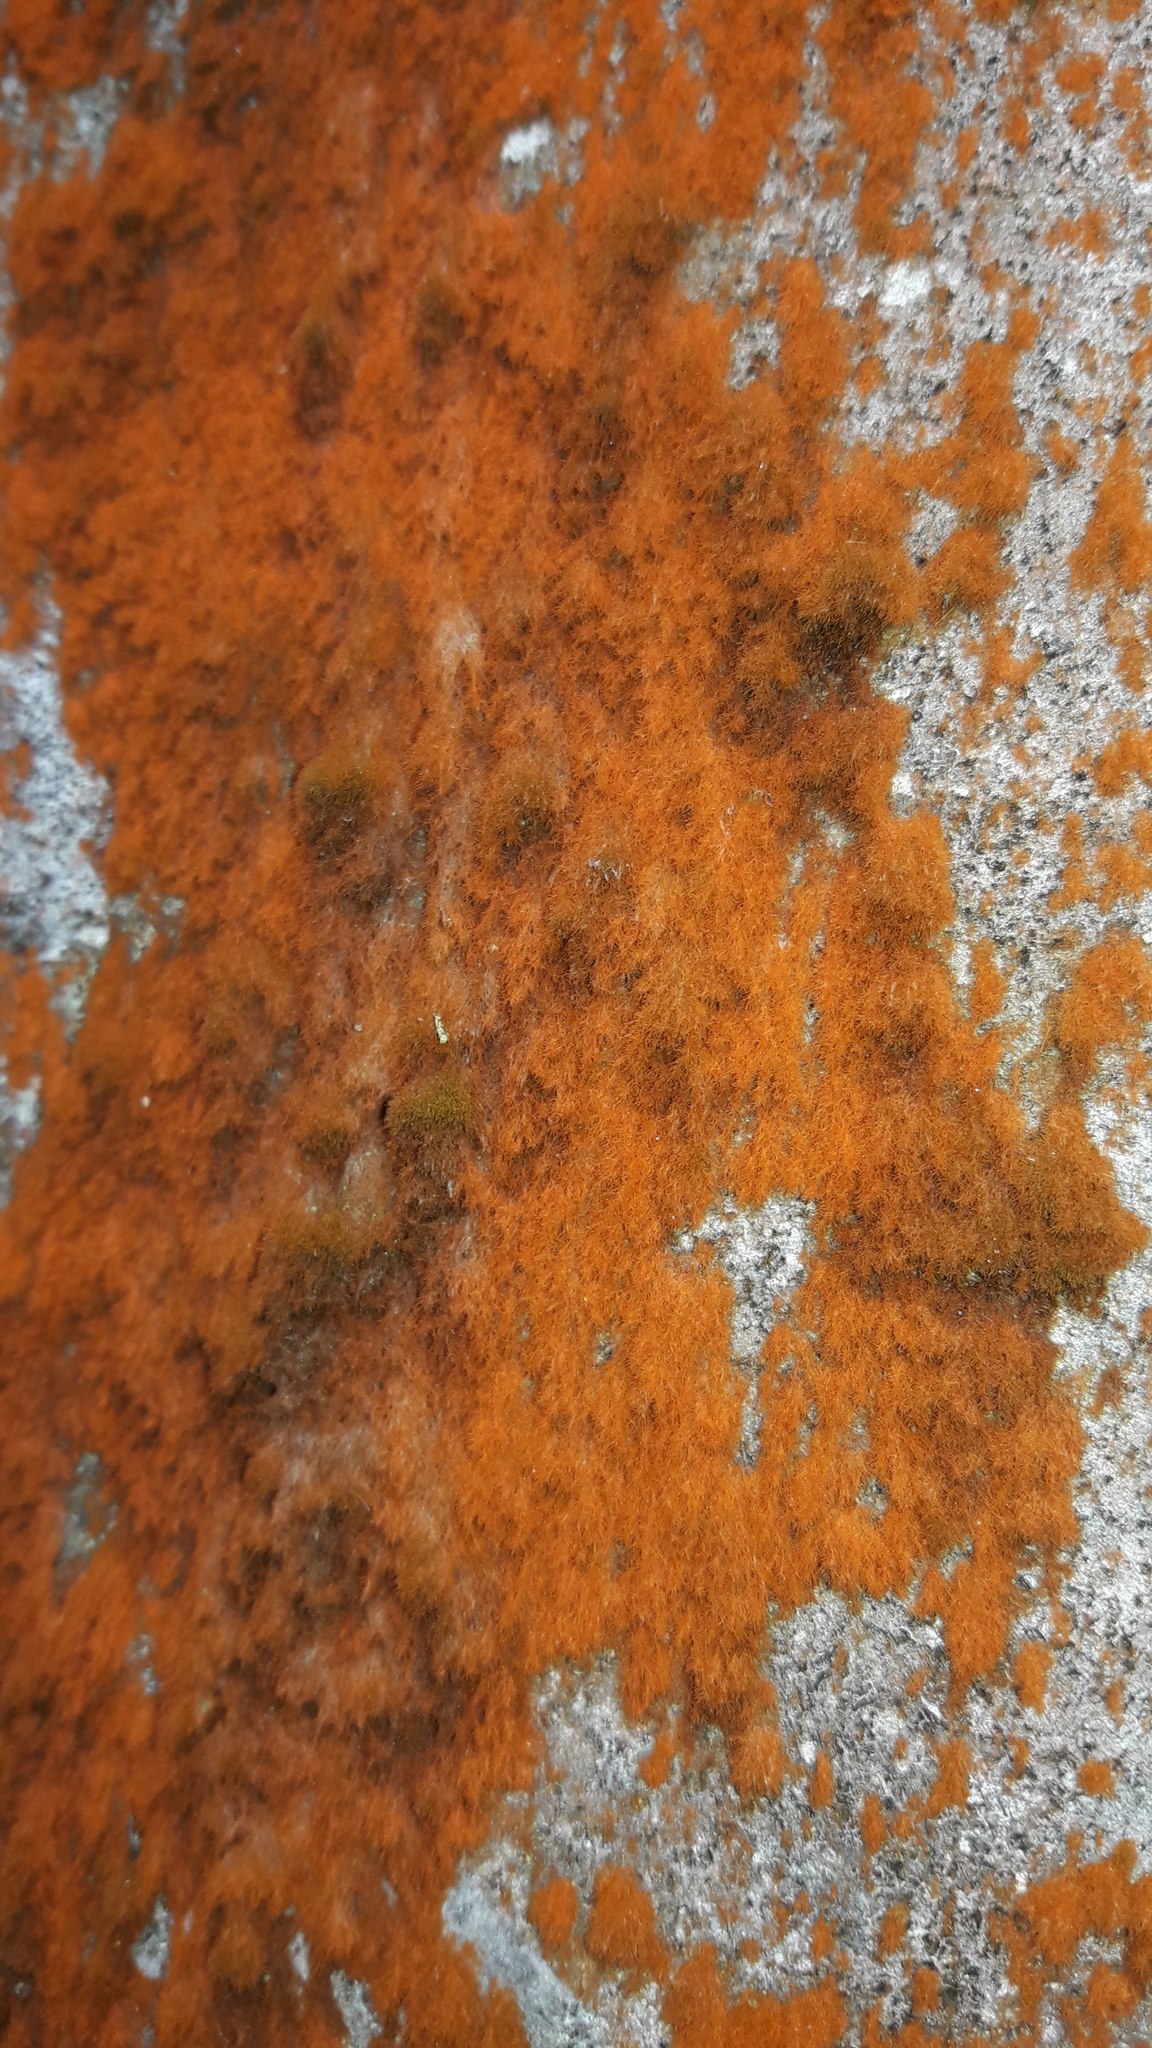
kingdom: Plantae
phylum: Chlorophyta
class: Ulvophyceae
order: Trentepohliales
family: Trentepohliaceae
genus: Trentepohlia
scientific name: Trentepohlia aurea
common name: Orange rock hair
